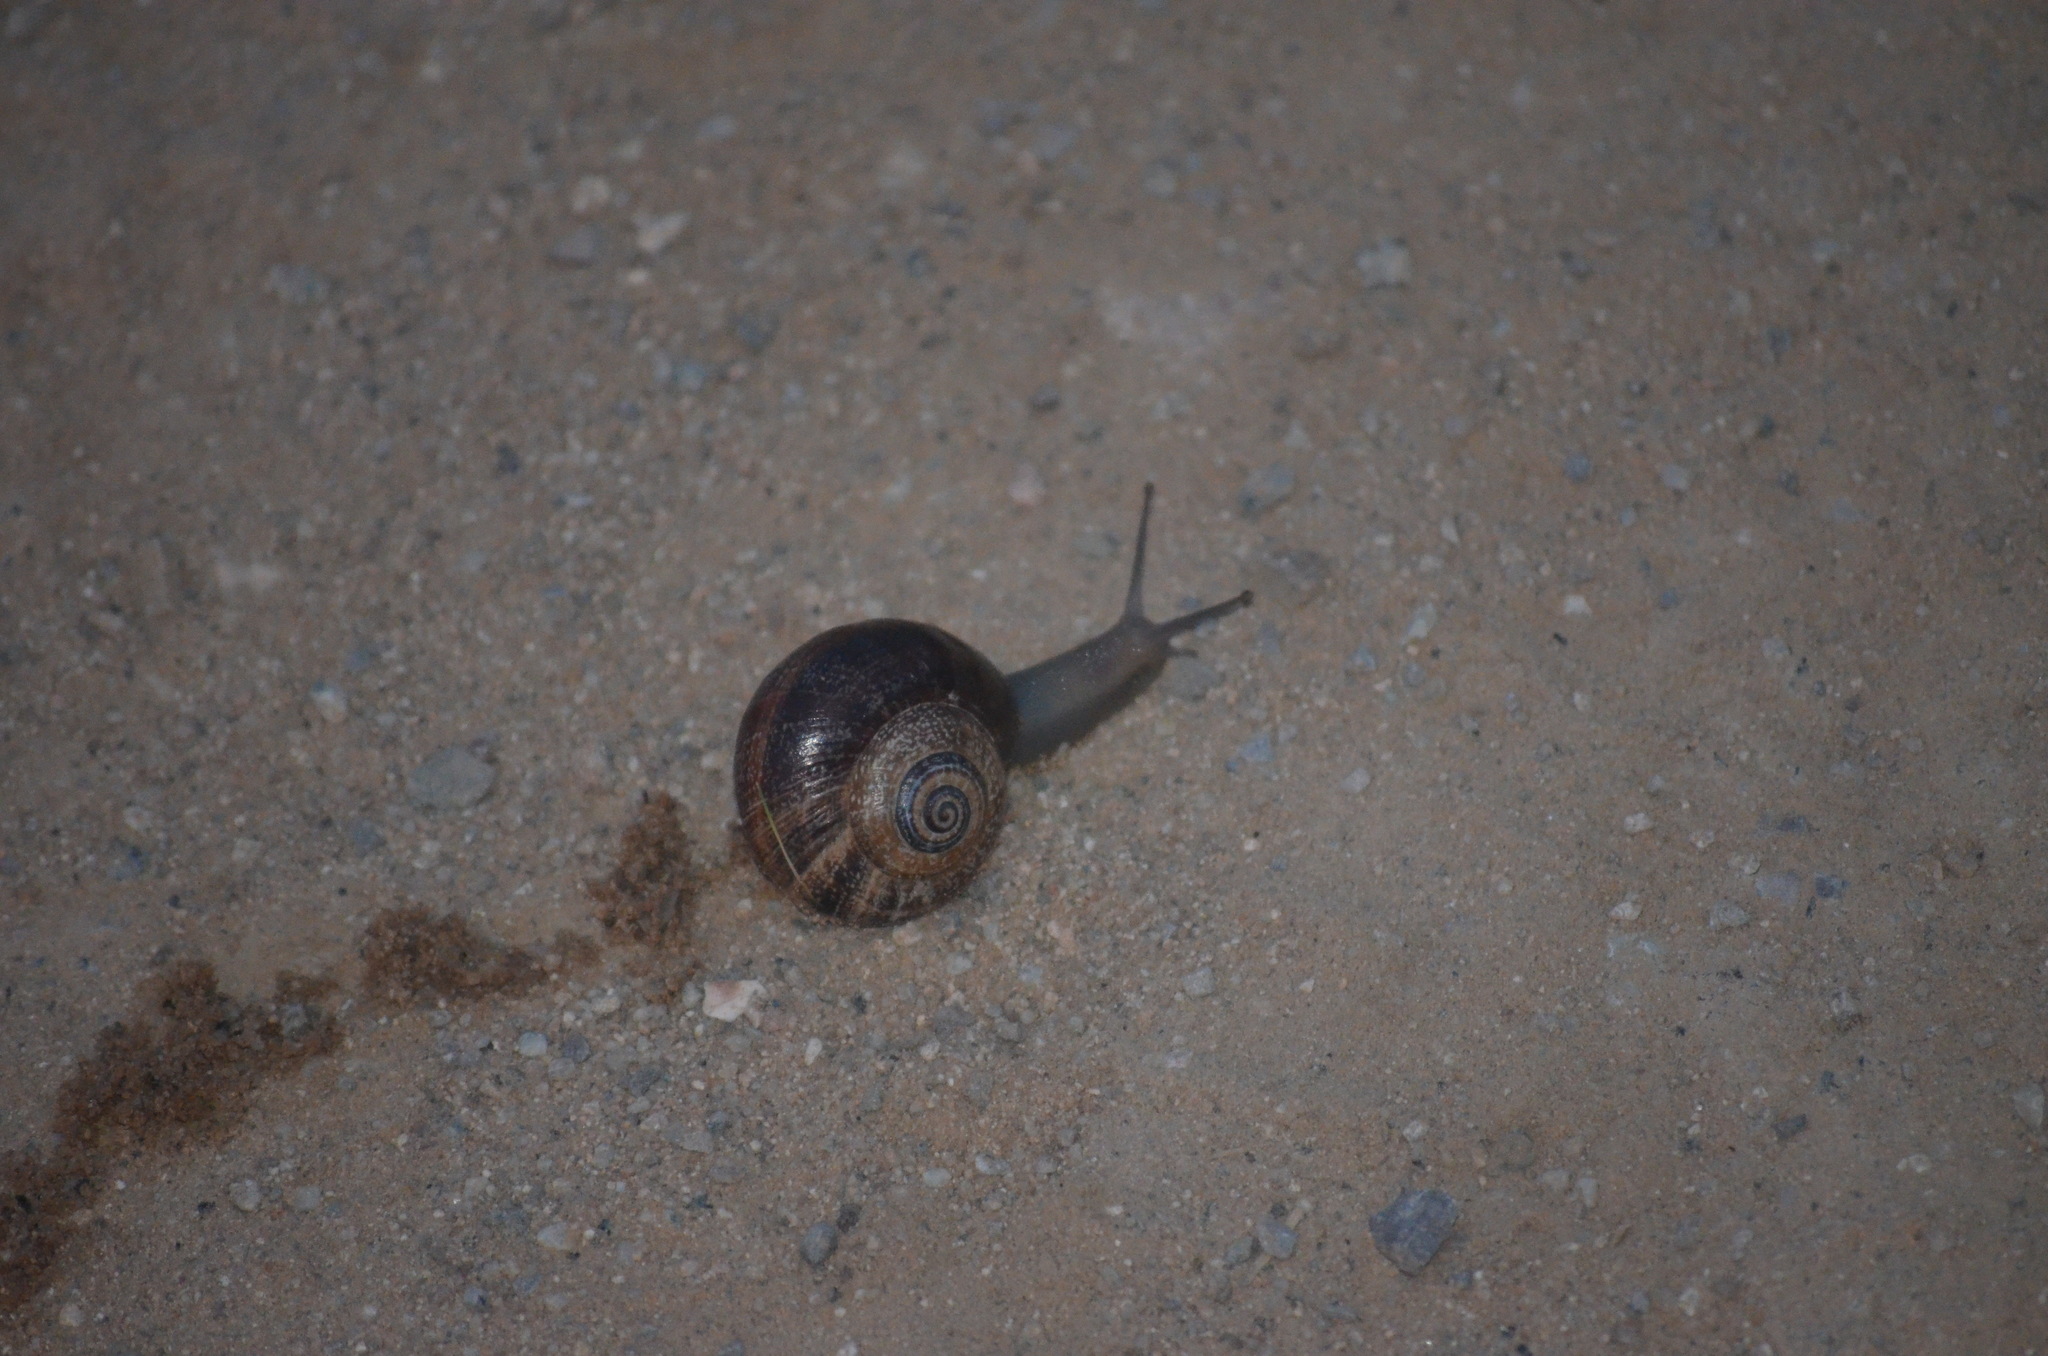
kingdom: Animalia
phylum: Mollusca
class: Gastropoda
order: Stylommatophora
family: Helicidae
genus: Otala
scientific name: Otala punctata
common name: Milk snail
